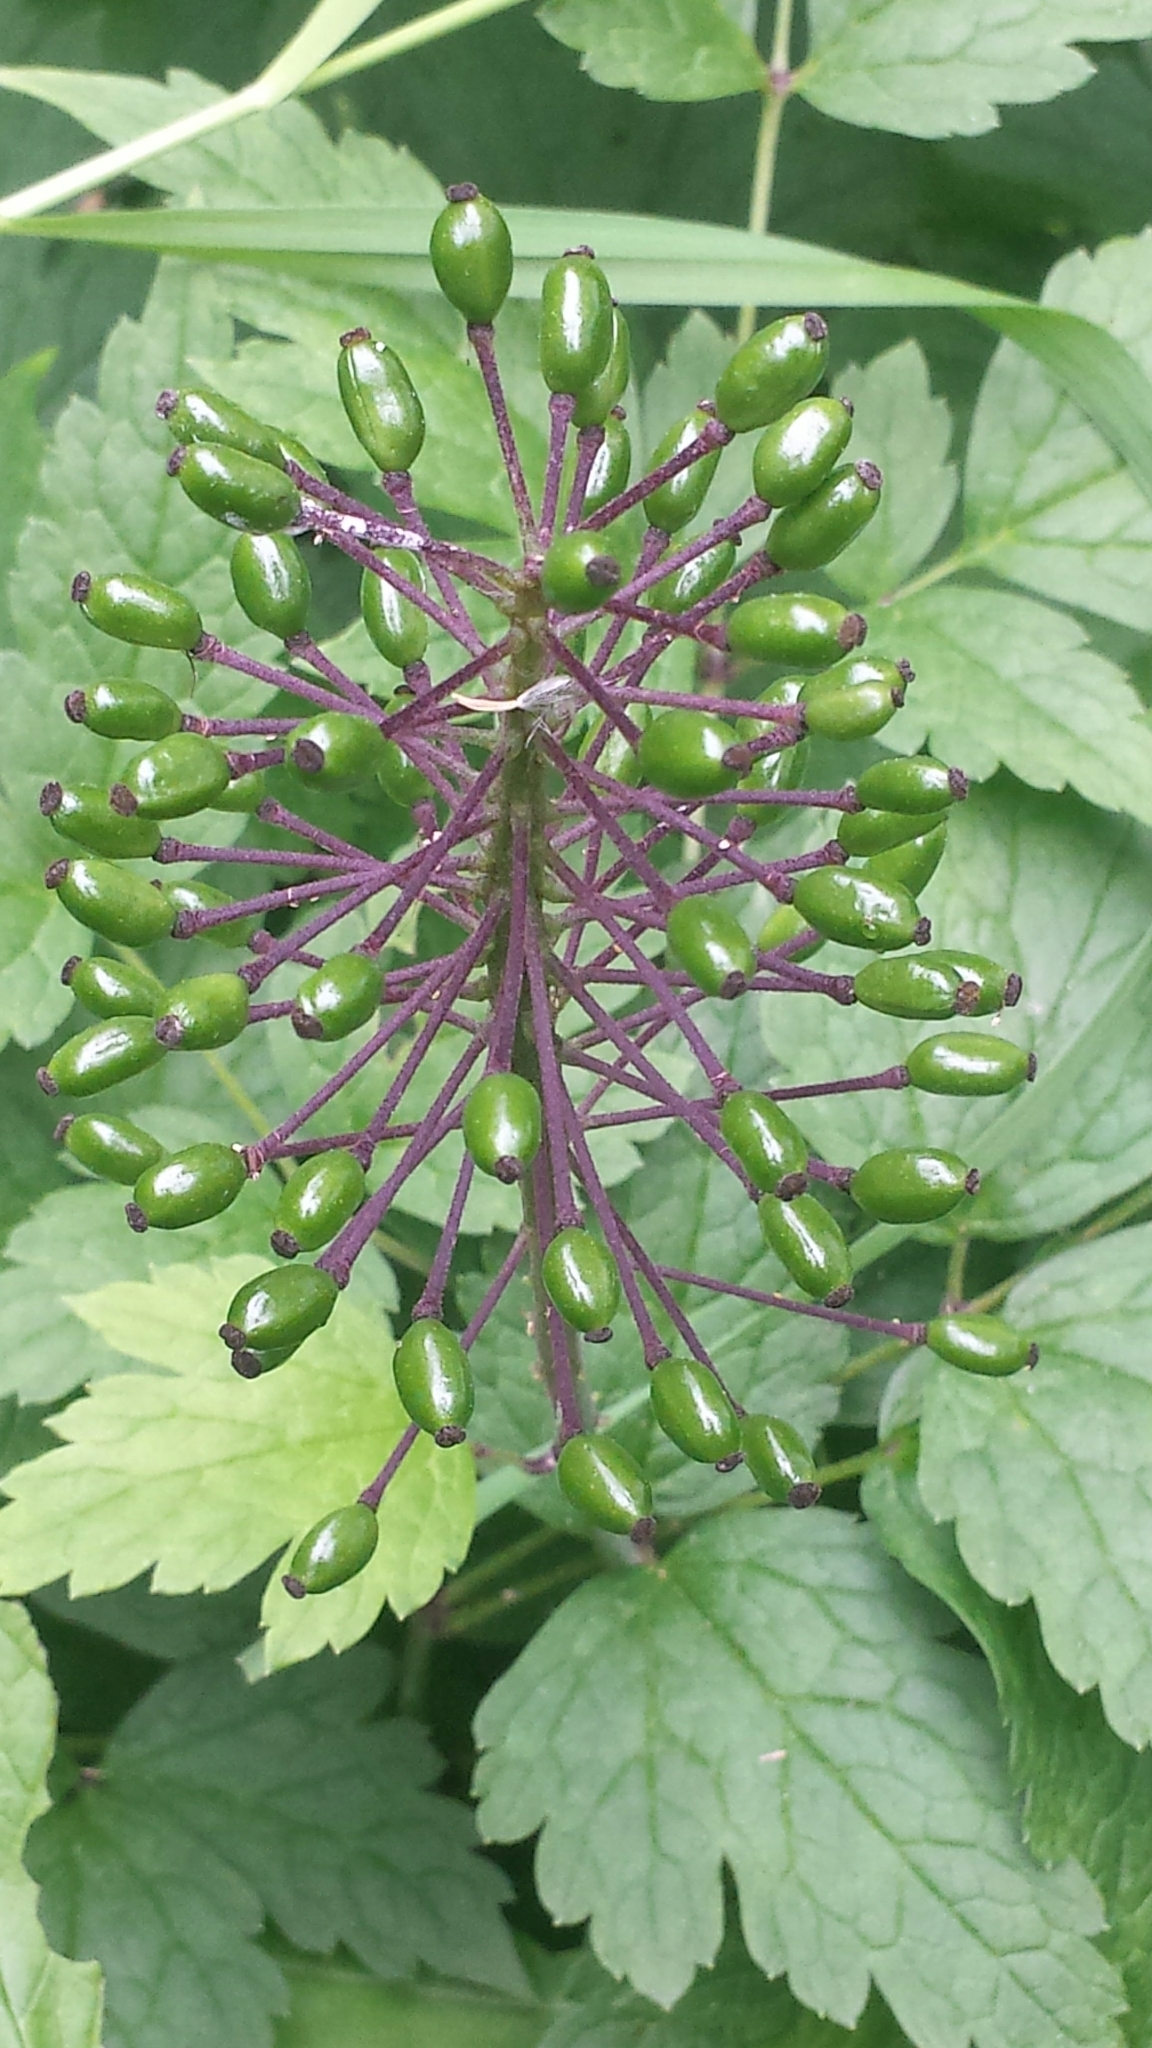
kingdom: Plantae
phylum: Tracheophyta
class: Magnoliopsida
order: Ranunculales
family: Ranunculaceae
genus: Actaea
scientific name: Actaea rubra
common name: Red baneberry
